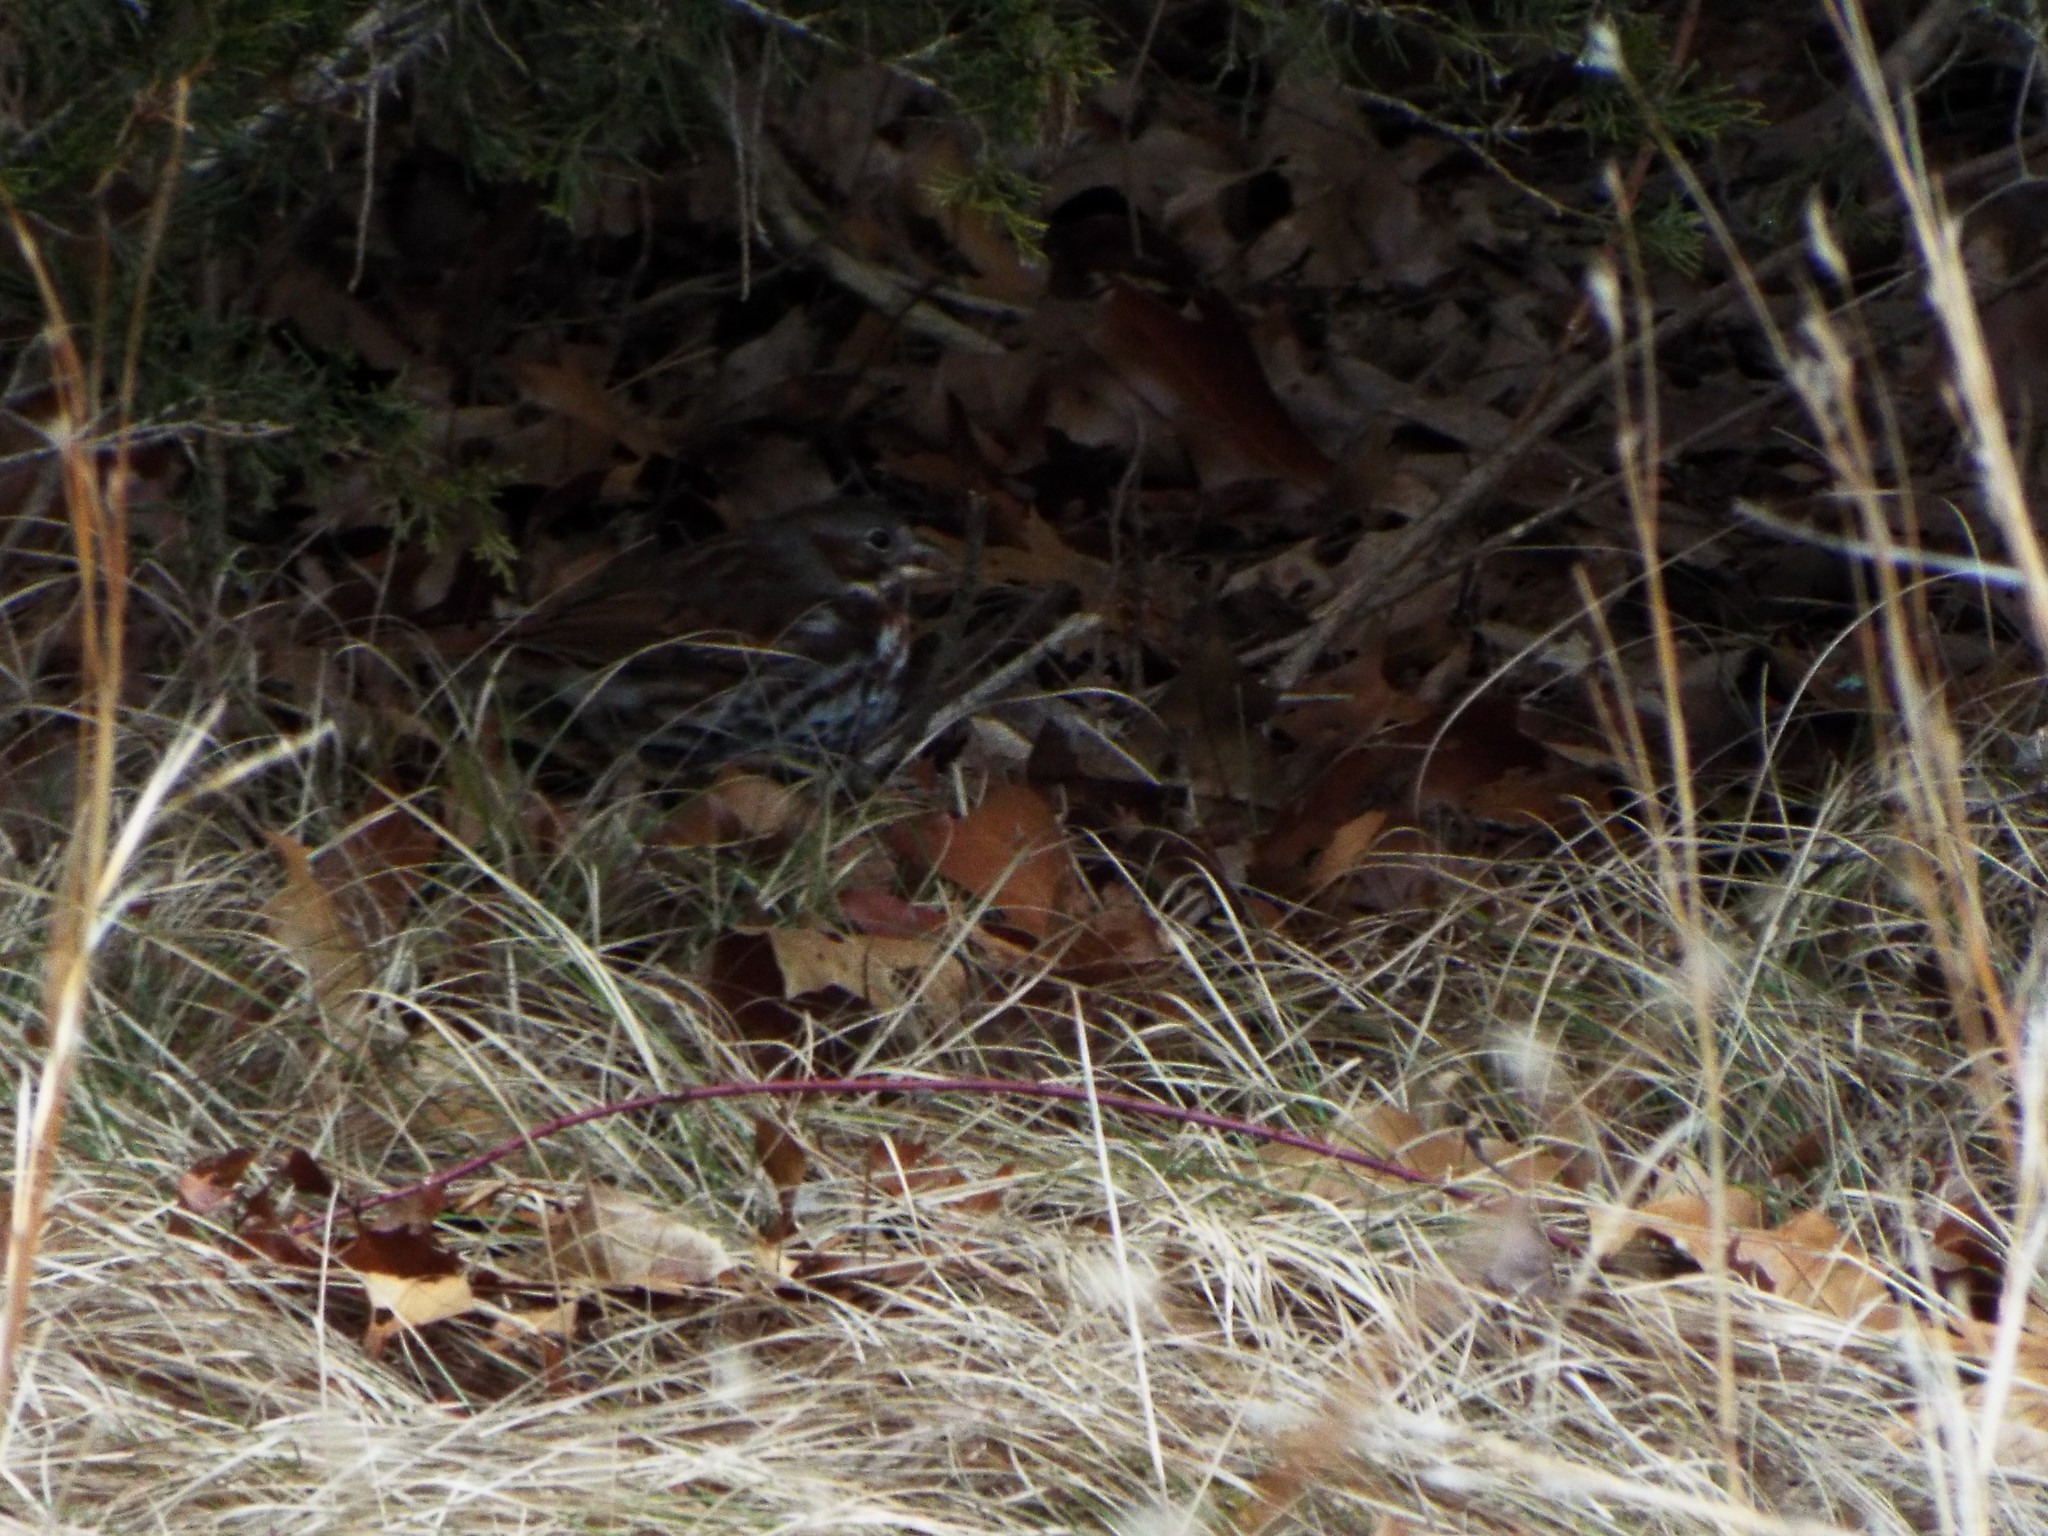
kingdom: Animalia
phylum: Chordata
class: Aves
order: Passeriformes
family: Passerellidae
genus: Passerella
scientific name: Passerella iliaca
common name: Fox sparrow
